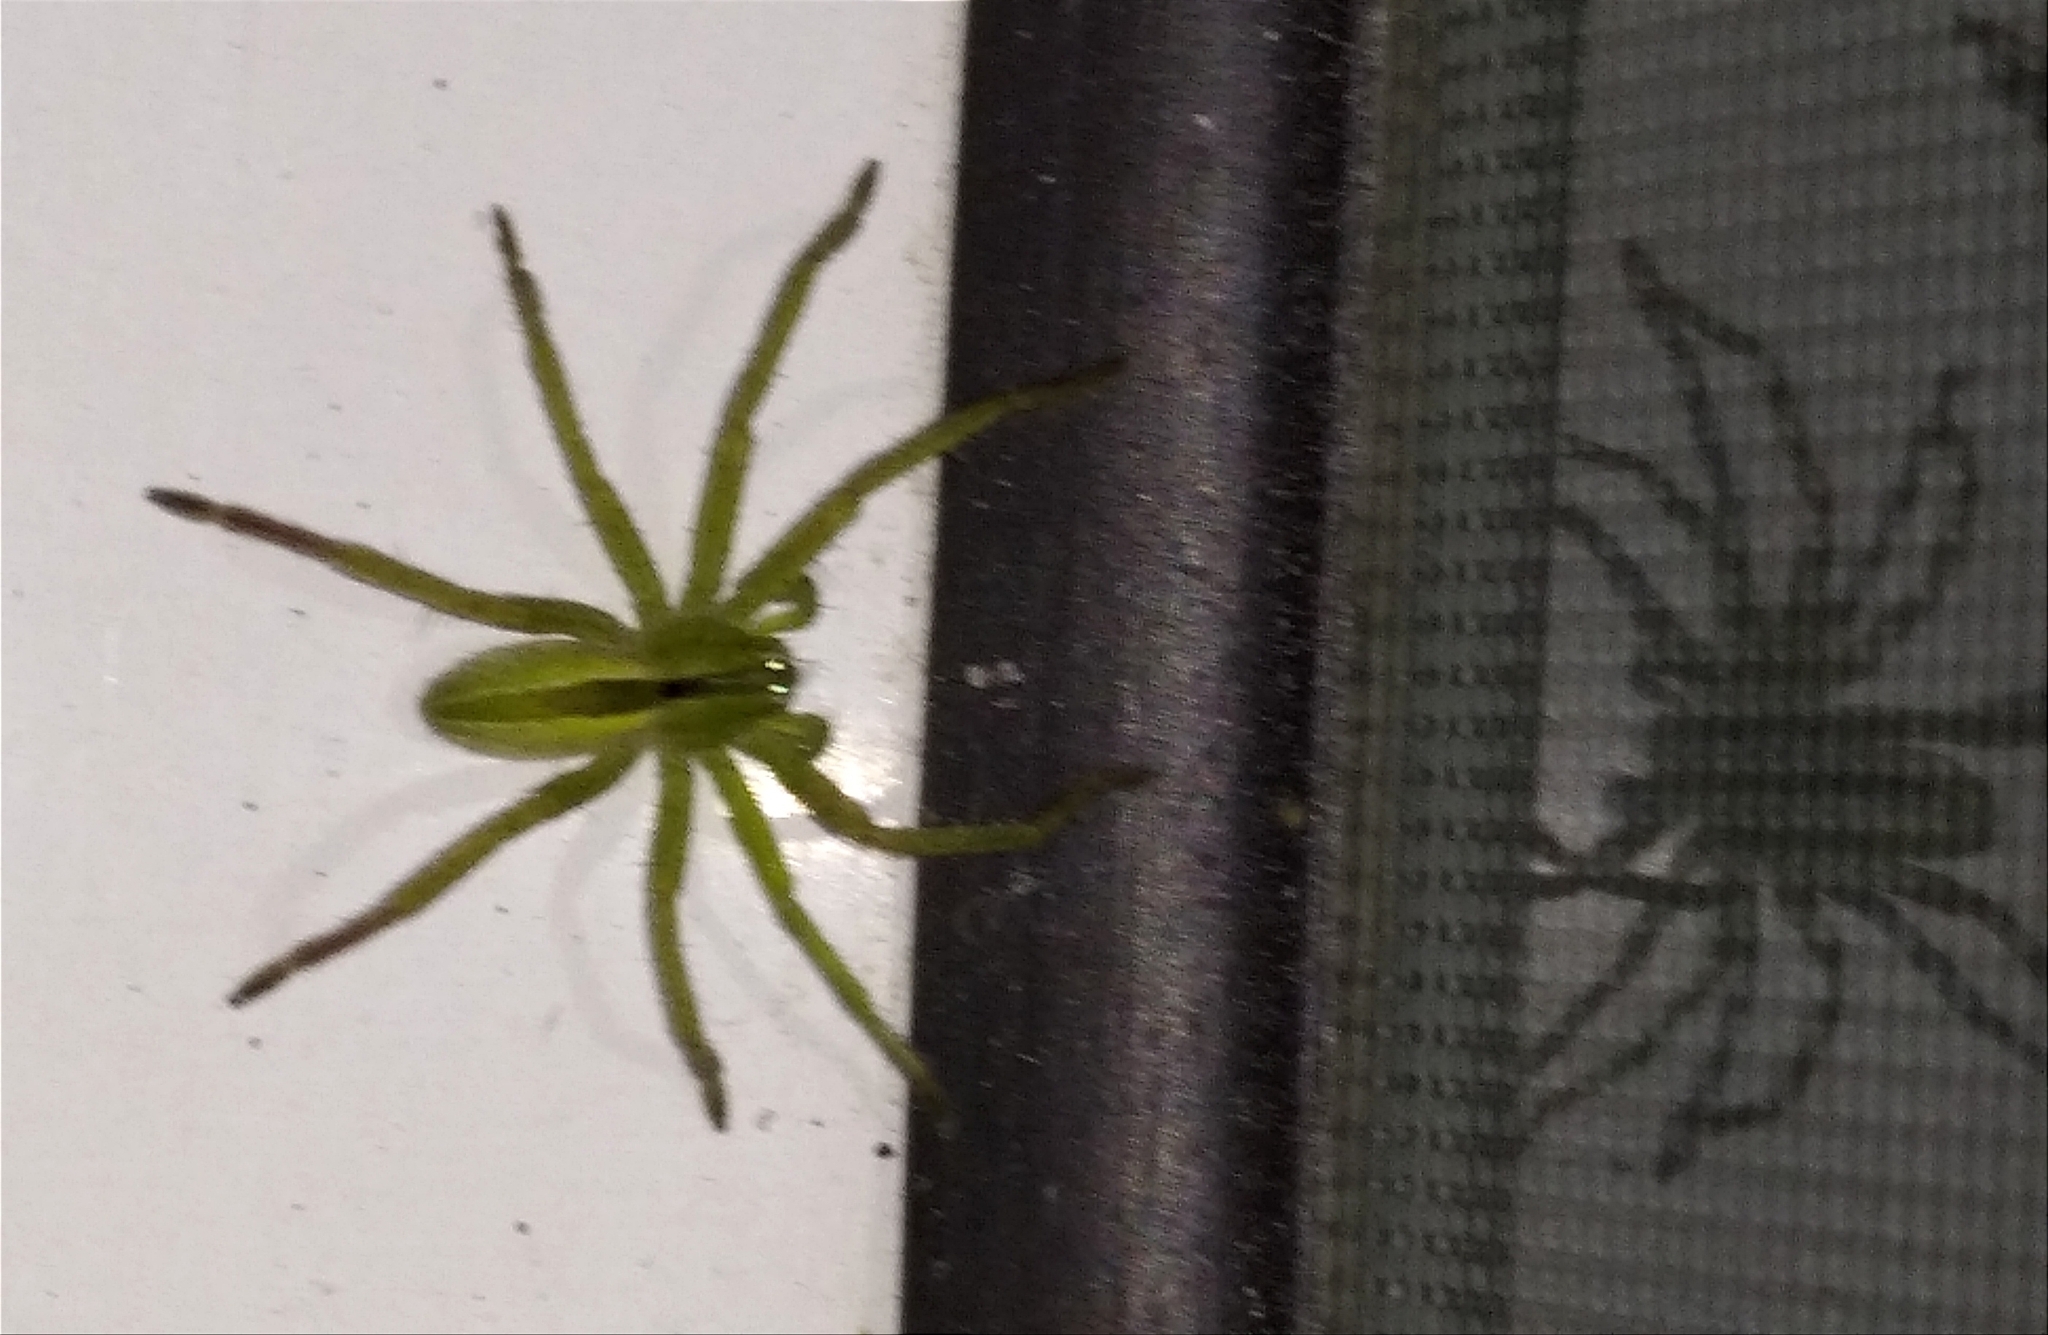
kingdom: Animalia
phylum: Arthropoda
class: Arachnida
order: Araneae
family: Sparassidae
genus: Micrommata
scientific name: Micrommata ligurina
